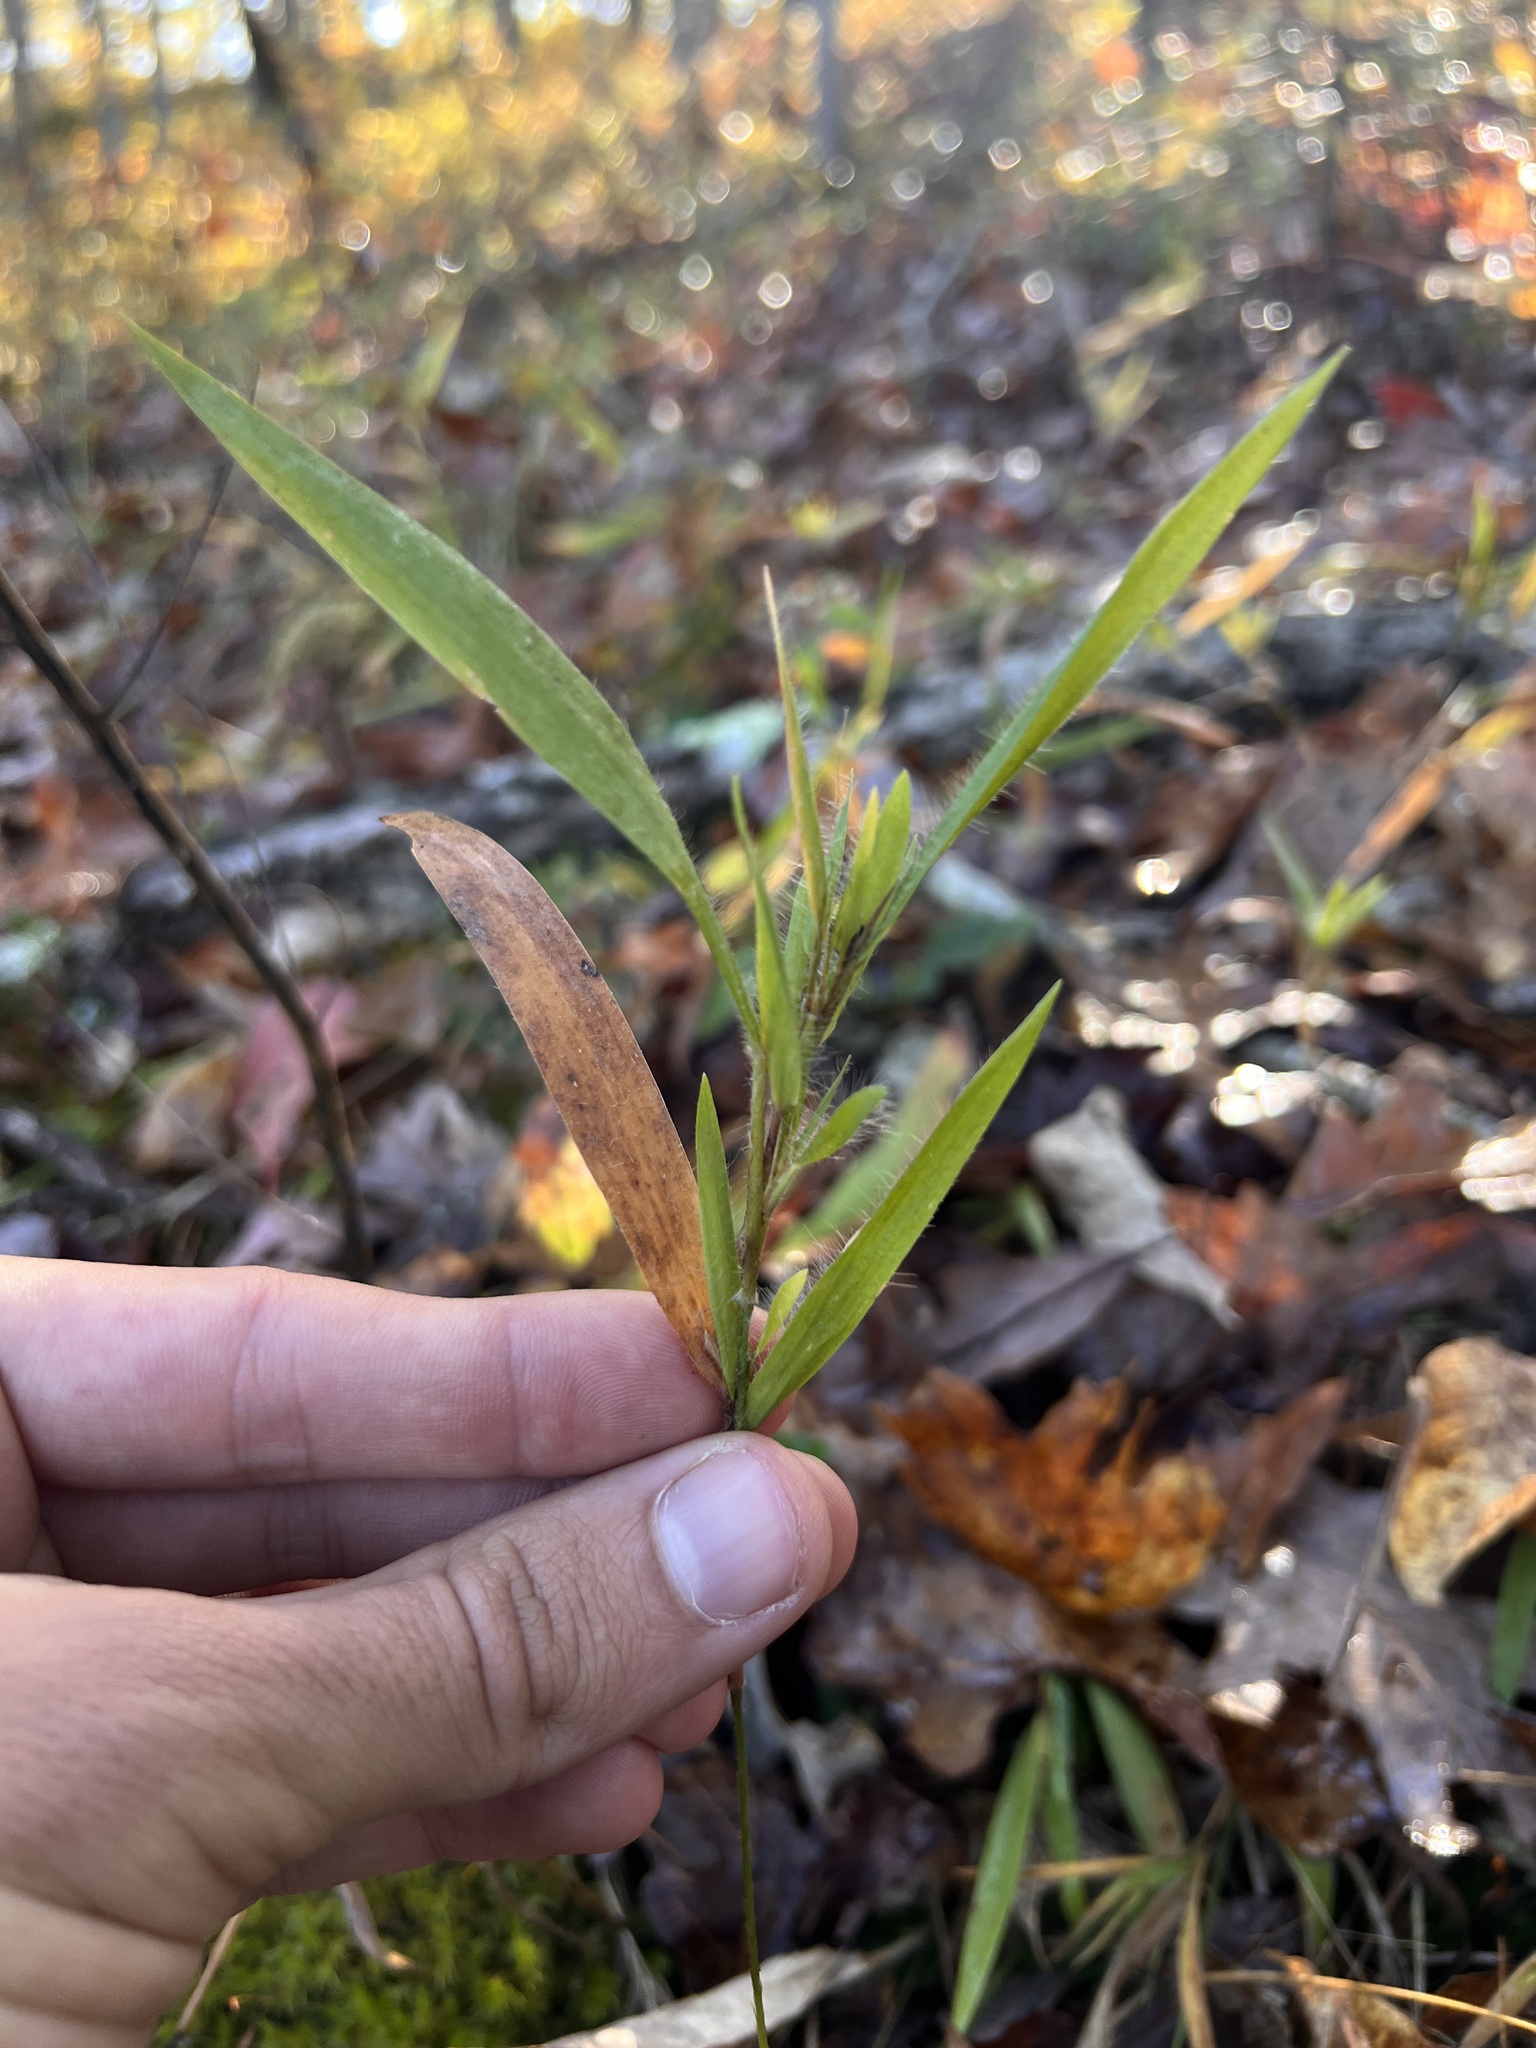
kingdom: Plantae
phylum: Tracheophyta
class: Liliopsida
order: Poales
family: Poaceae
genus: Dichanthelium
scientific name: Dichanthelium villosissimum
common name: White-haired panicgrass
